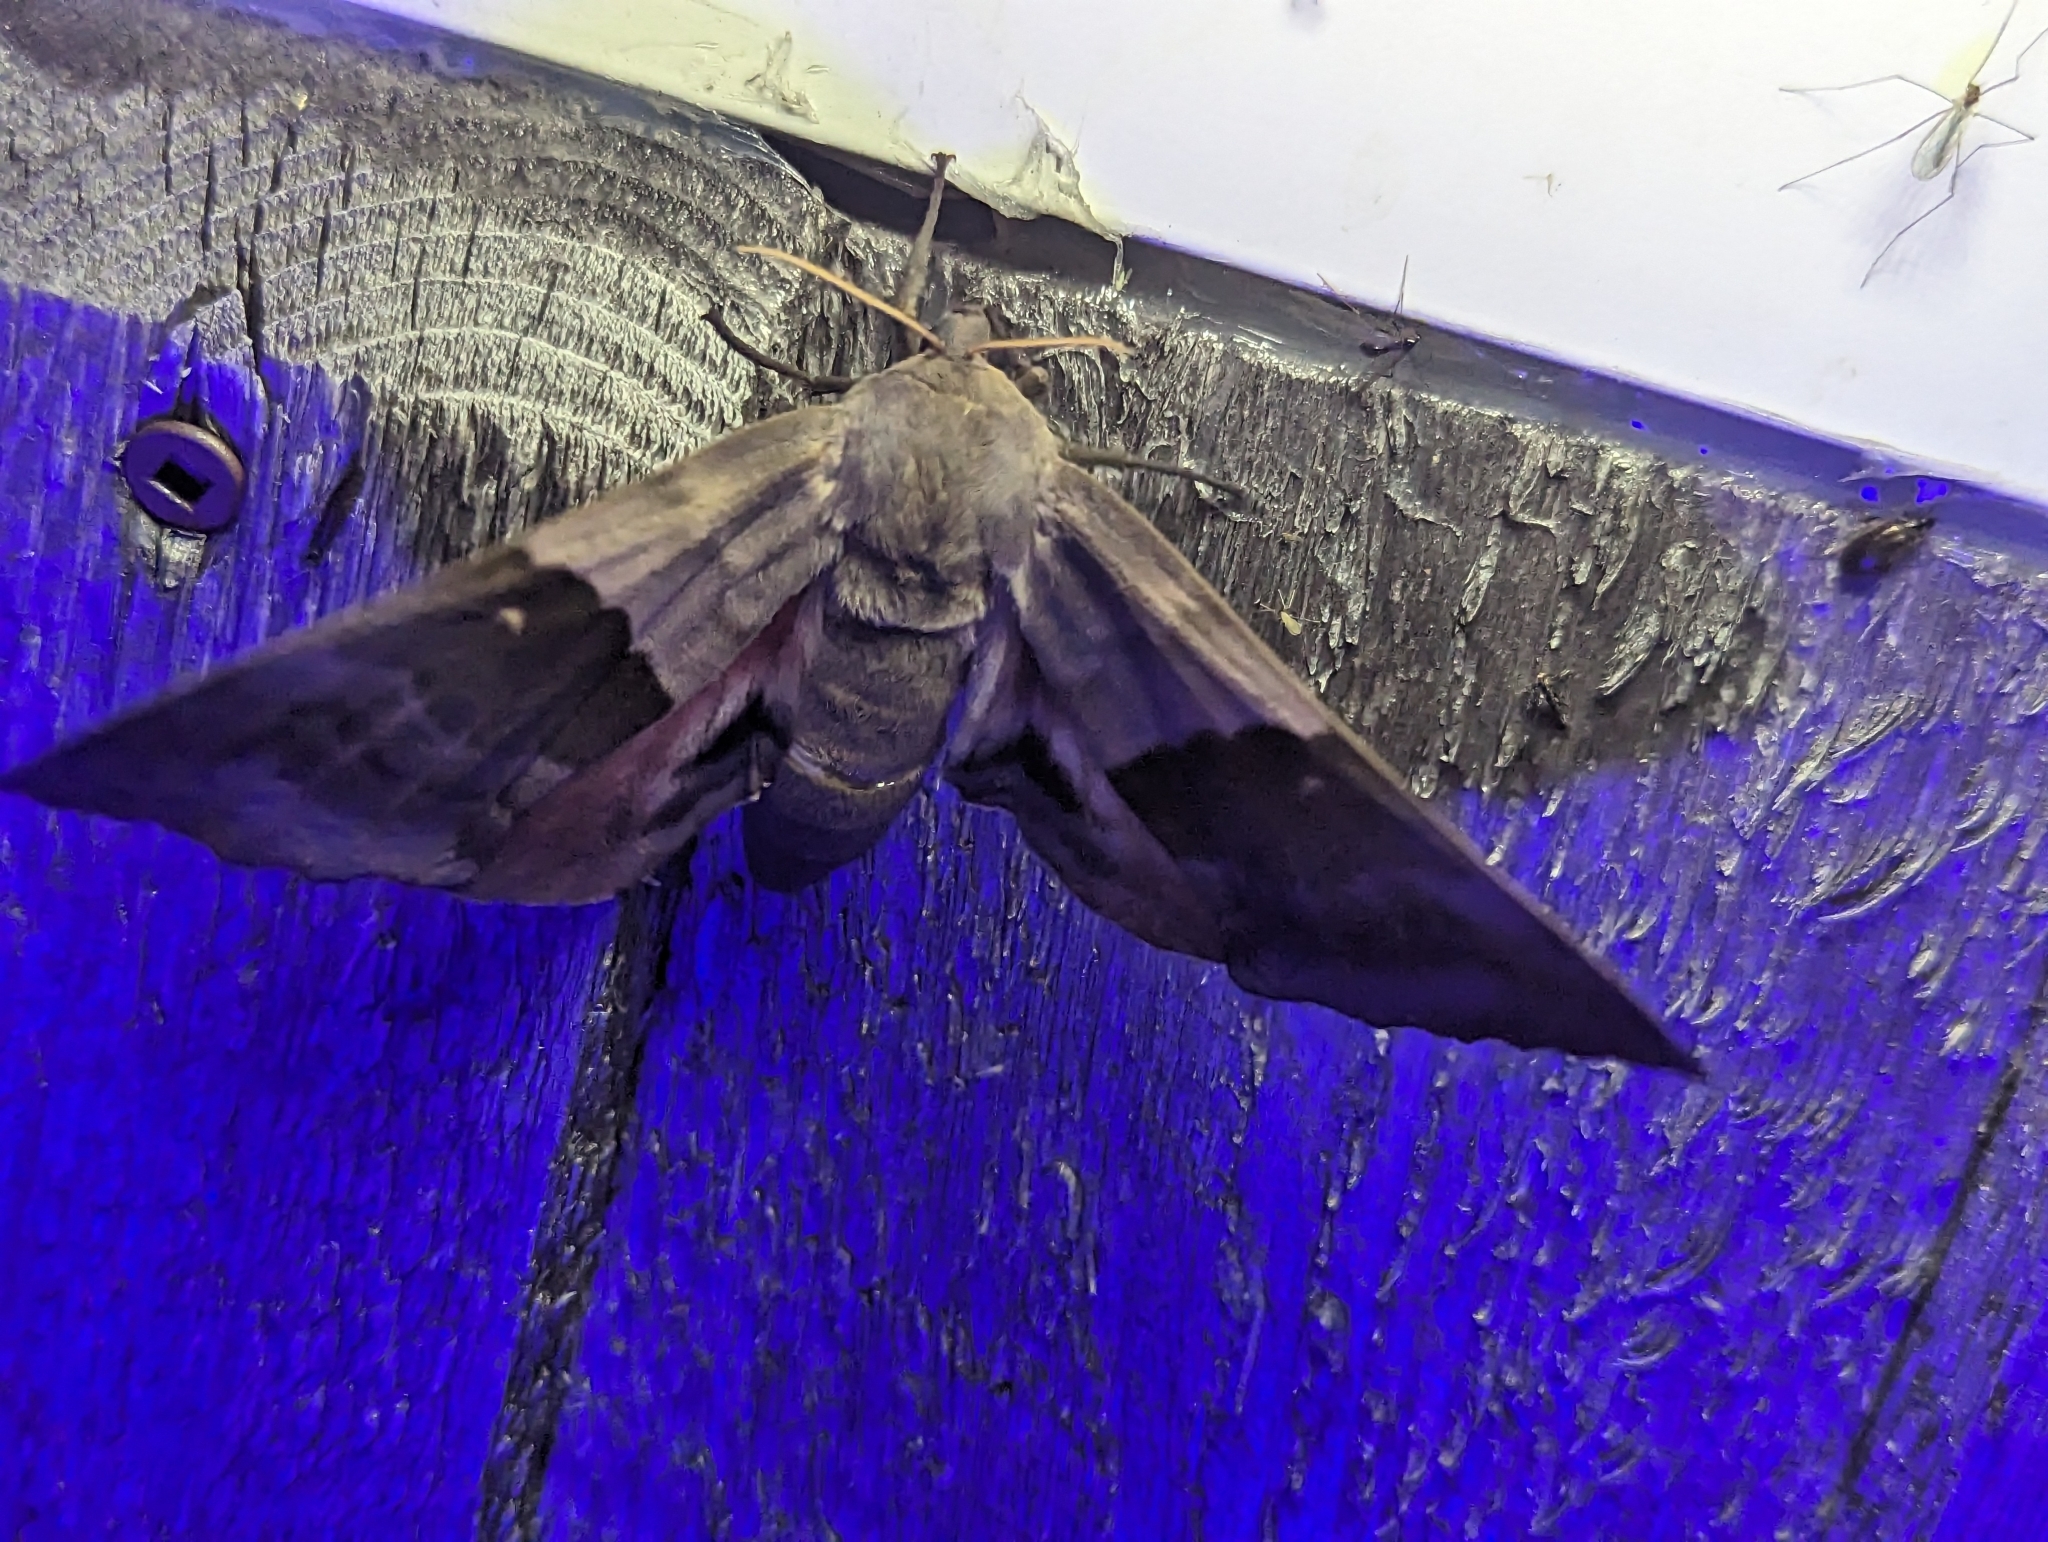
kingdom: Animalia
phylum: Arthropoda
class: Insecta
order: Lepidoptera
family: Sphingidae
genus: Pachysphinx
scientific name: Pachysphinx modesta
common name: Big poplar sphinx
